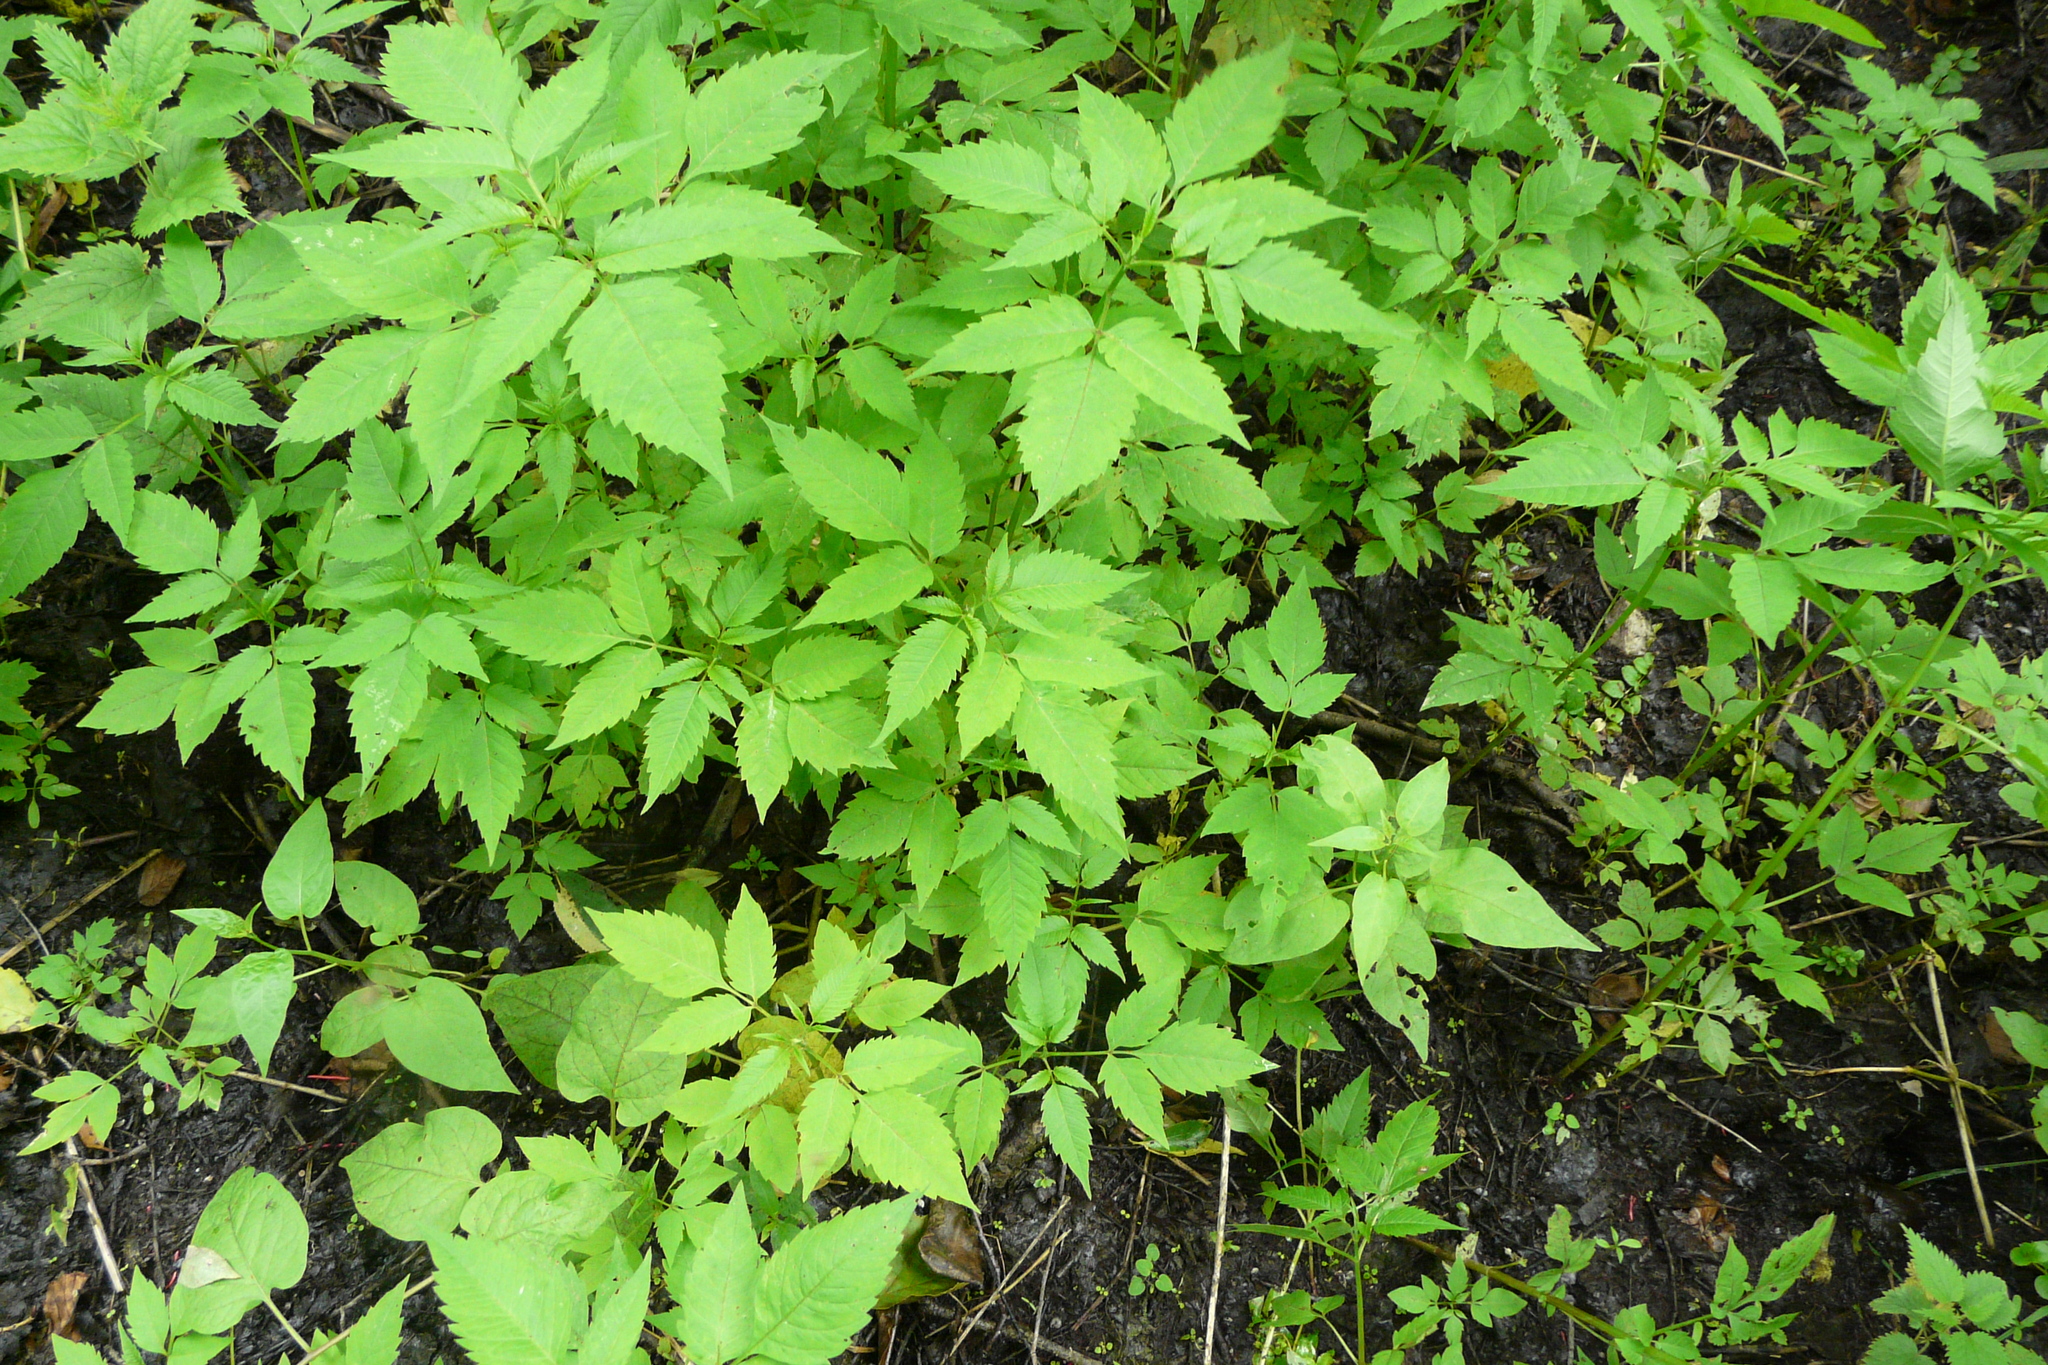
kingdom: Plantae
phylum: Tracheophyta
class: Magnoliopsida
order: Asterales
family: Asteraceae
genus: Bidens
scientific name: Bidens frondosa
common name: Beggarticks
